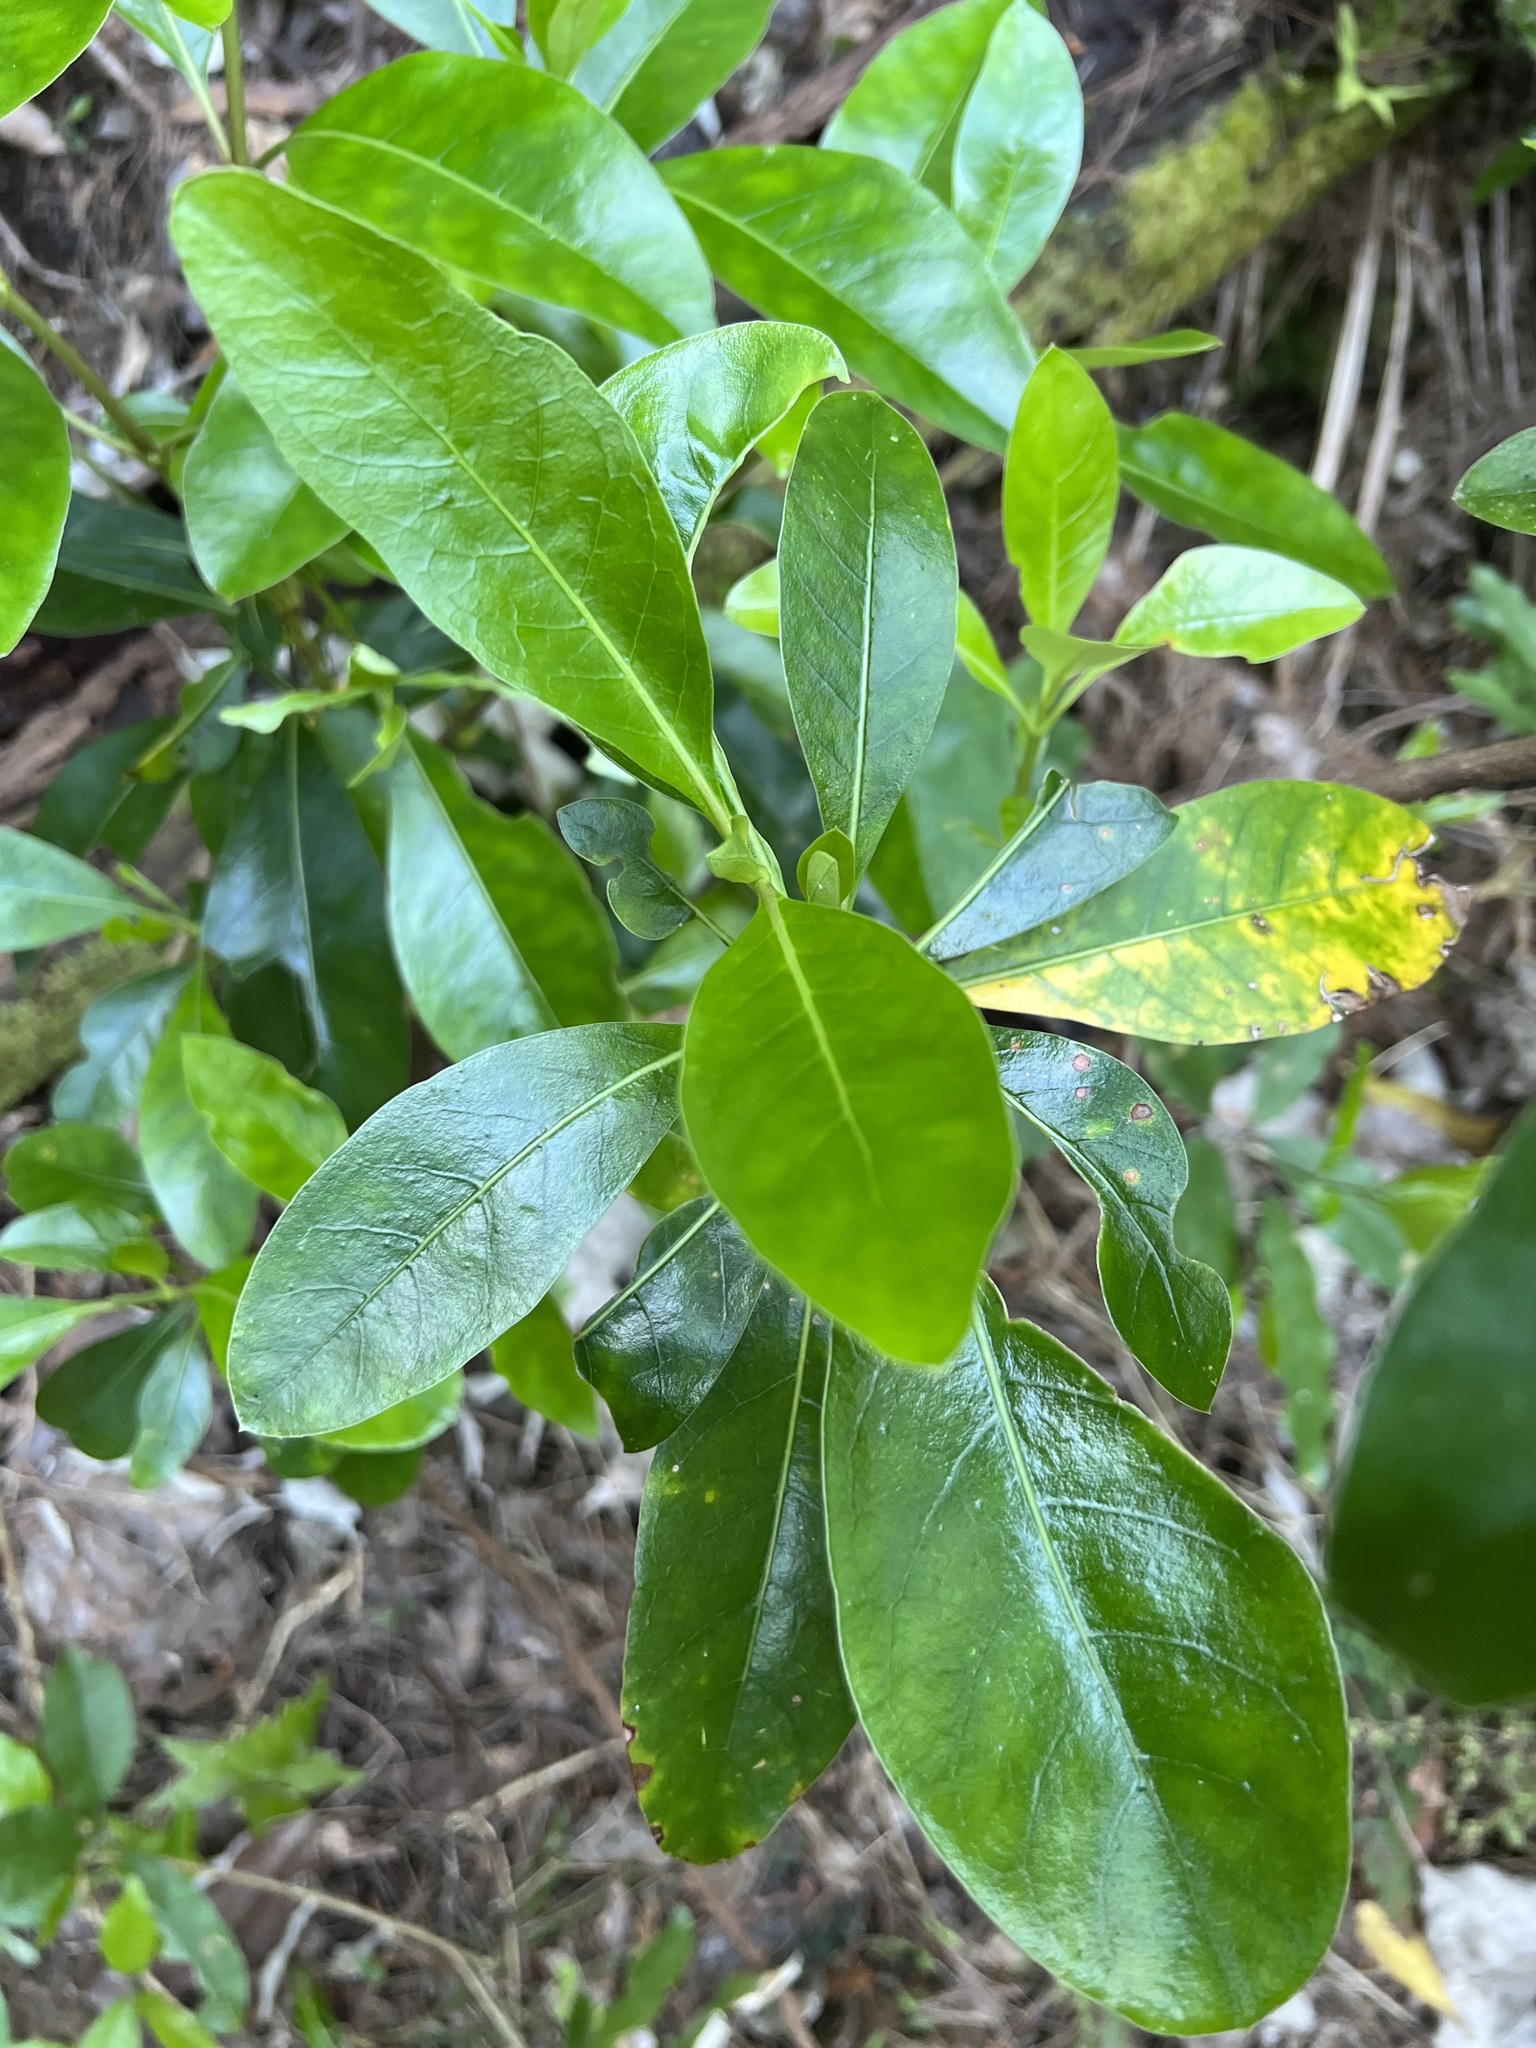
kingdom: Plantae
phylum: Tracheophyta
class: Magnoliopsida
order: Gentianales
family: Rubiaceae
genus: Coprosma
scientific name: Coprosma lucida
